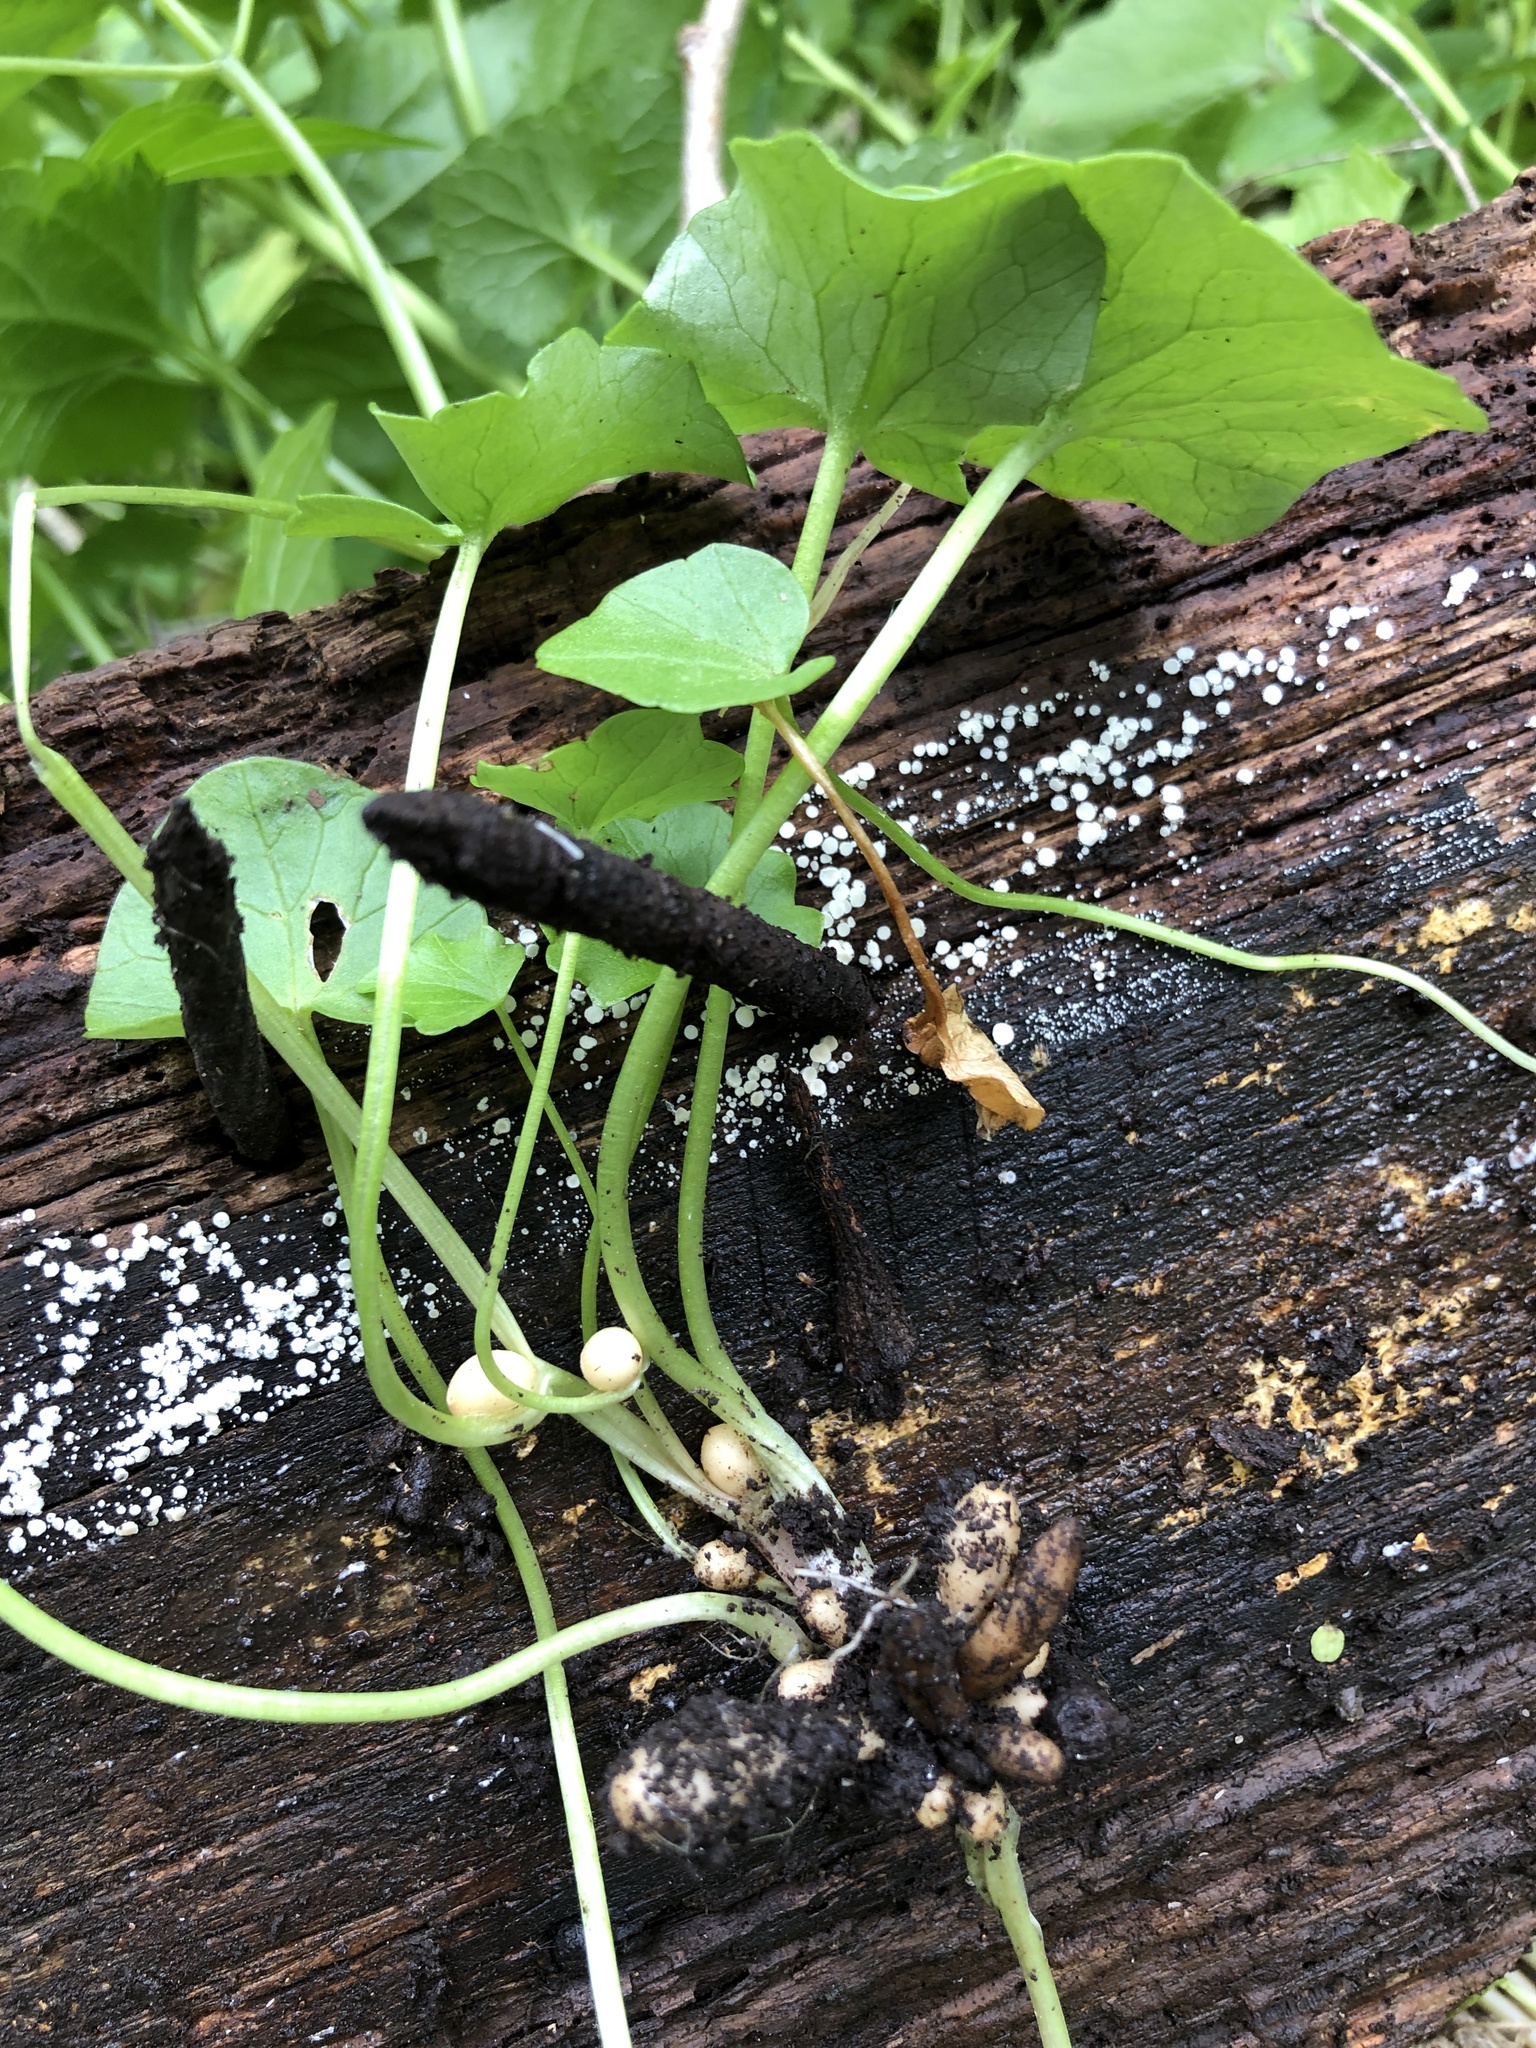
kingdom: Plantae
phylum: Tracheophyta
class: Magnoliopsida
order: Ranunculales
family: Ranunculaceae
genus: Ficaria
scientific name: Ficaria verna
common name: Lesser celandine
